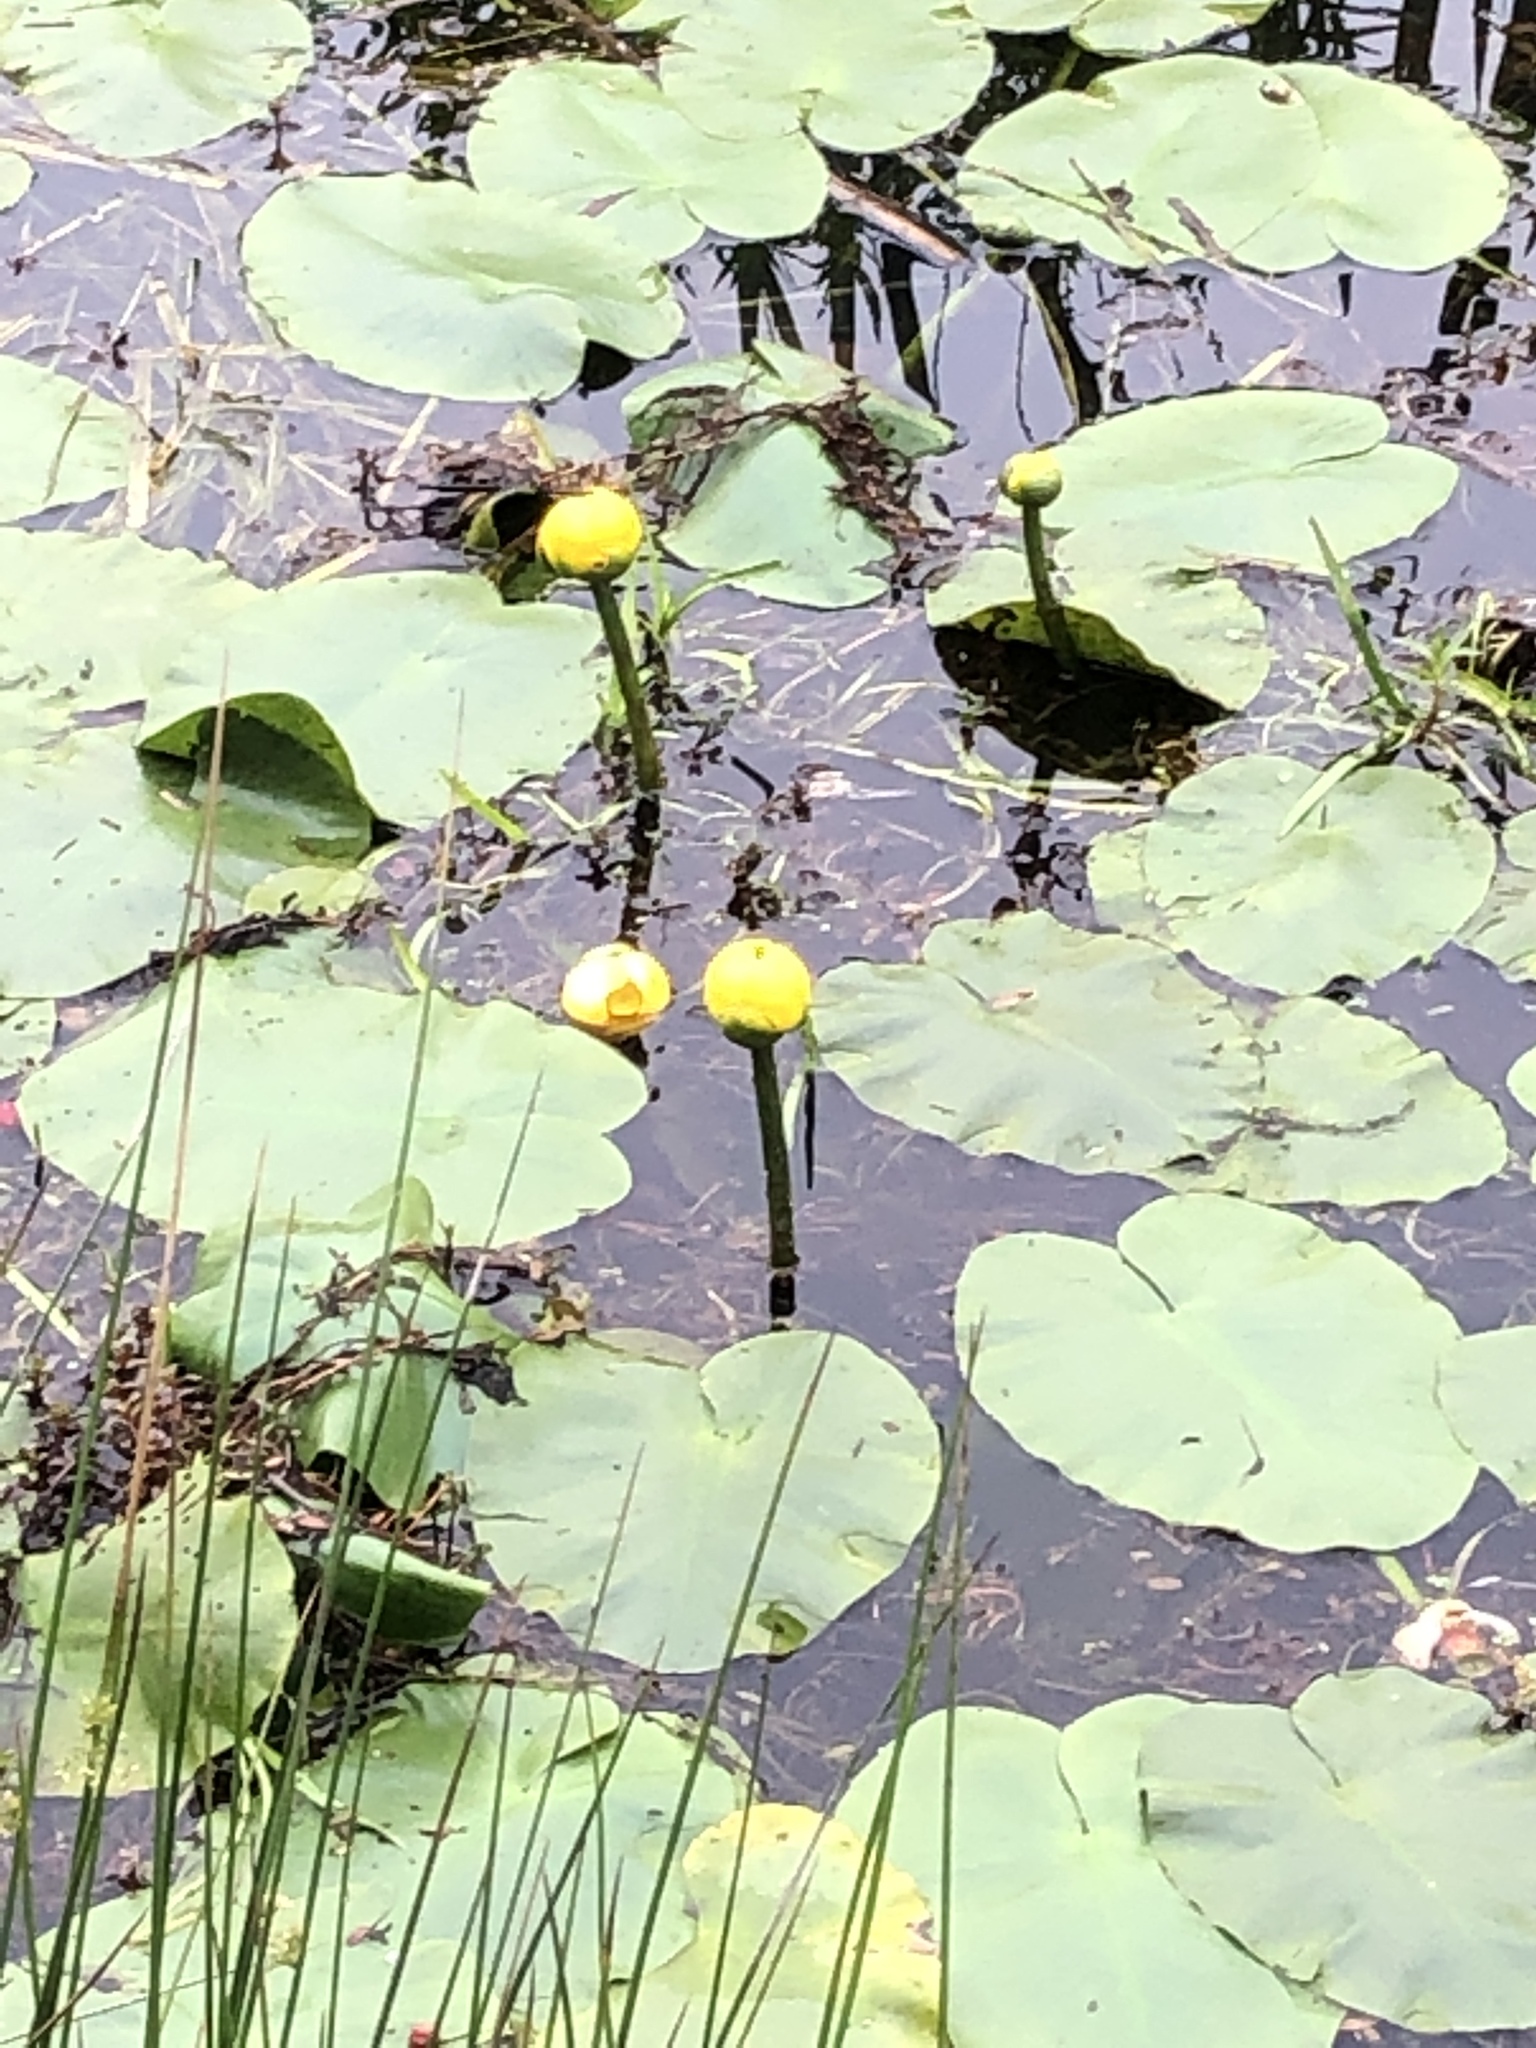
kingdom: Plantae
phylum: Tracheophyta
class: Magnoliopsida
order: Nymphaeales
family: Nymphaeaceae
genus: Nuphar
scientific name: Nuphar variegata
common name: Beaver-root
